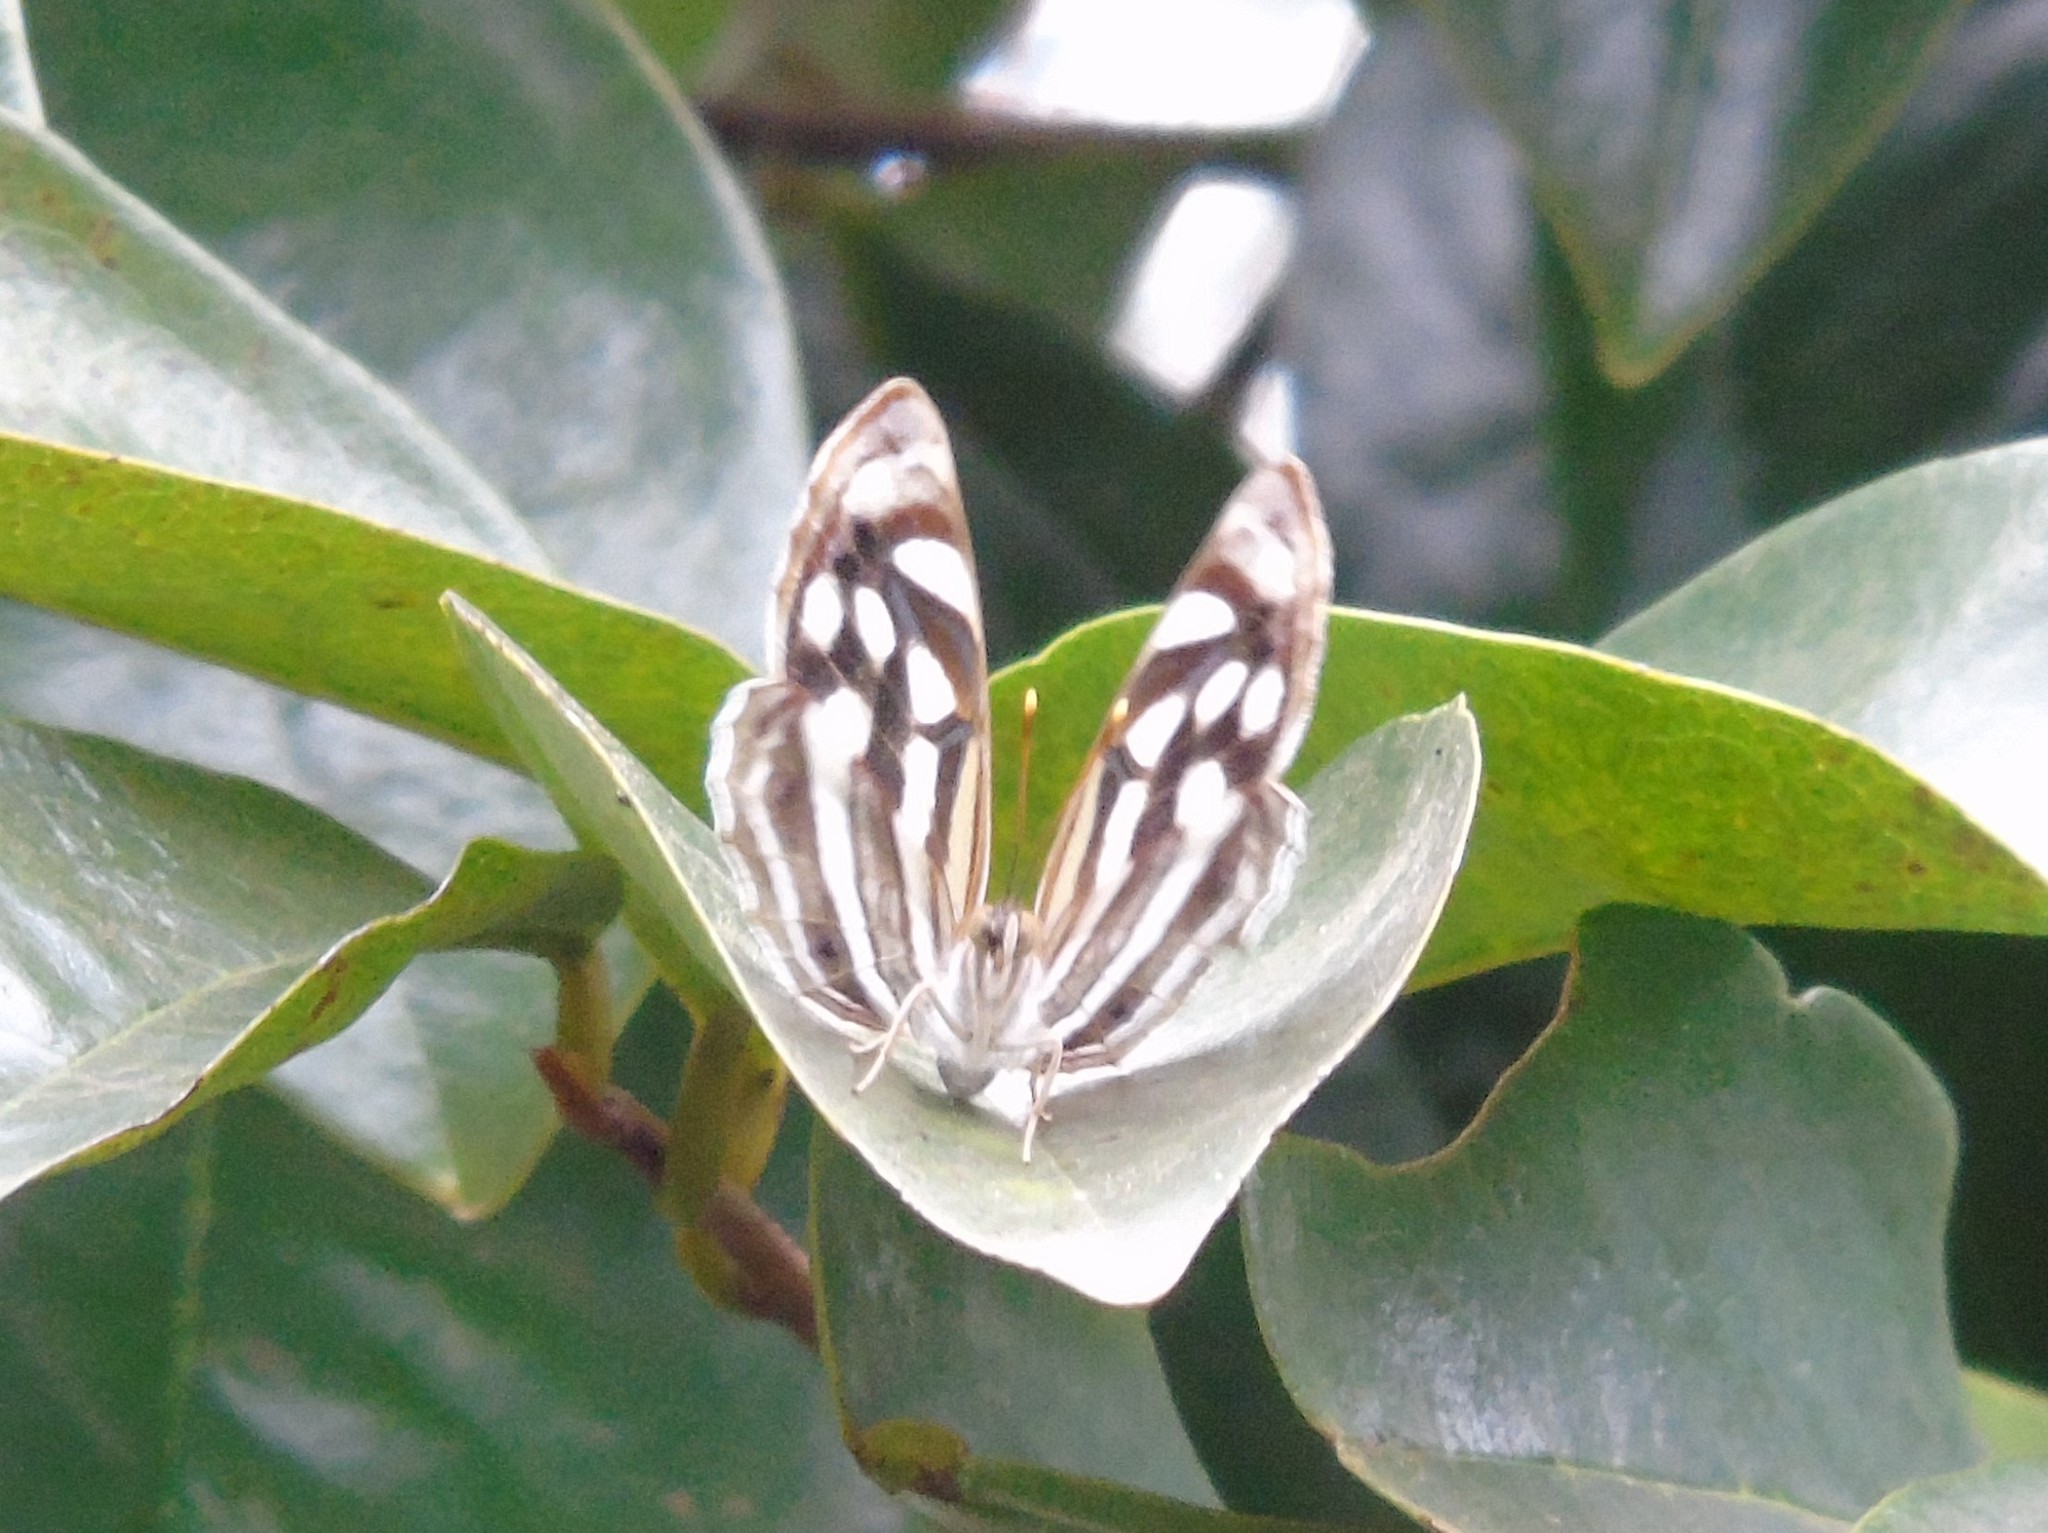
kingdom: Animalia
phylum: Arthropoda
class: Insecta
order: Lepidoptera
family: Nymphalidae
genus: Dynamine
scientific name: Dynamine mylitta
